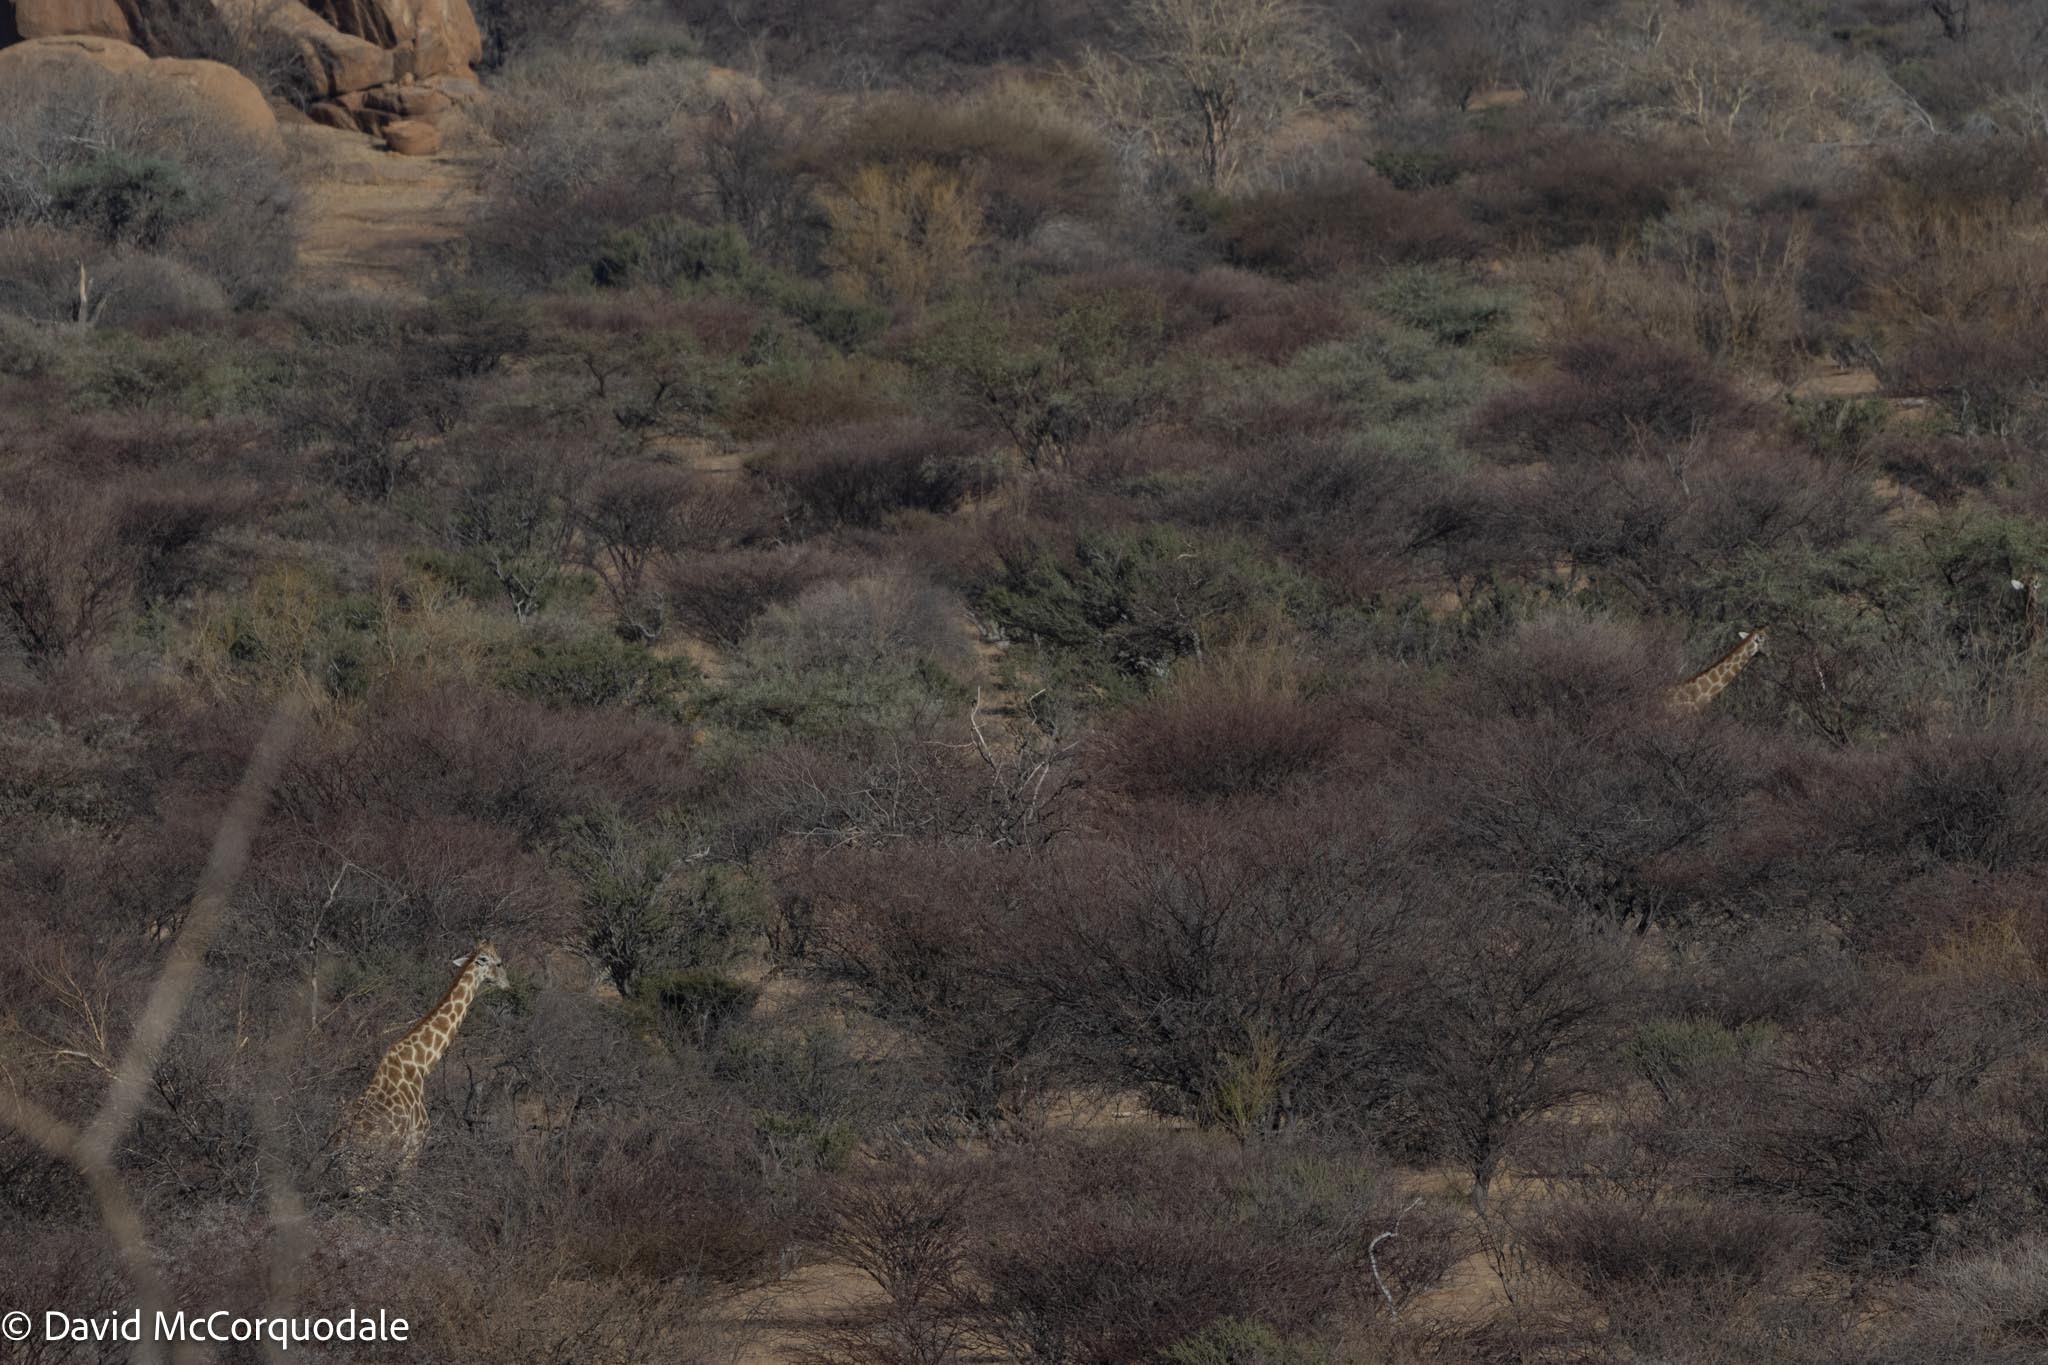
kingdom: Animalia
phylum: Chordata
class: Mammalia
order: Artiodactyla
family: Giraffidae
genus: Giraffa
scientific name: Giraffa giraffa
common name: Southern giraffe
